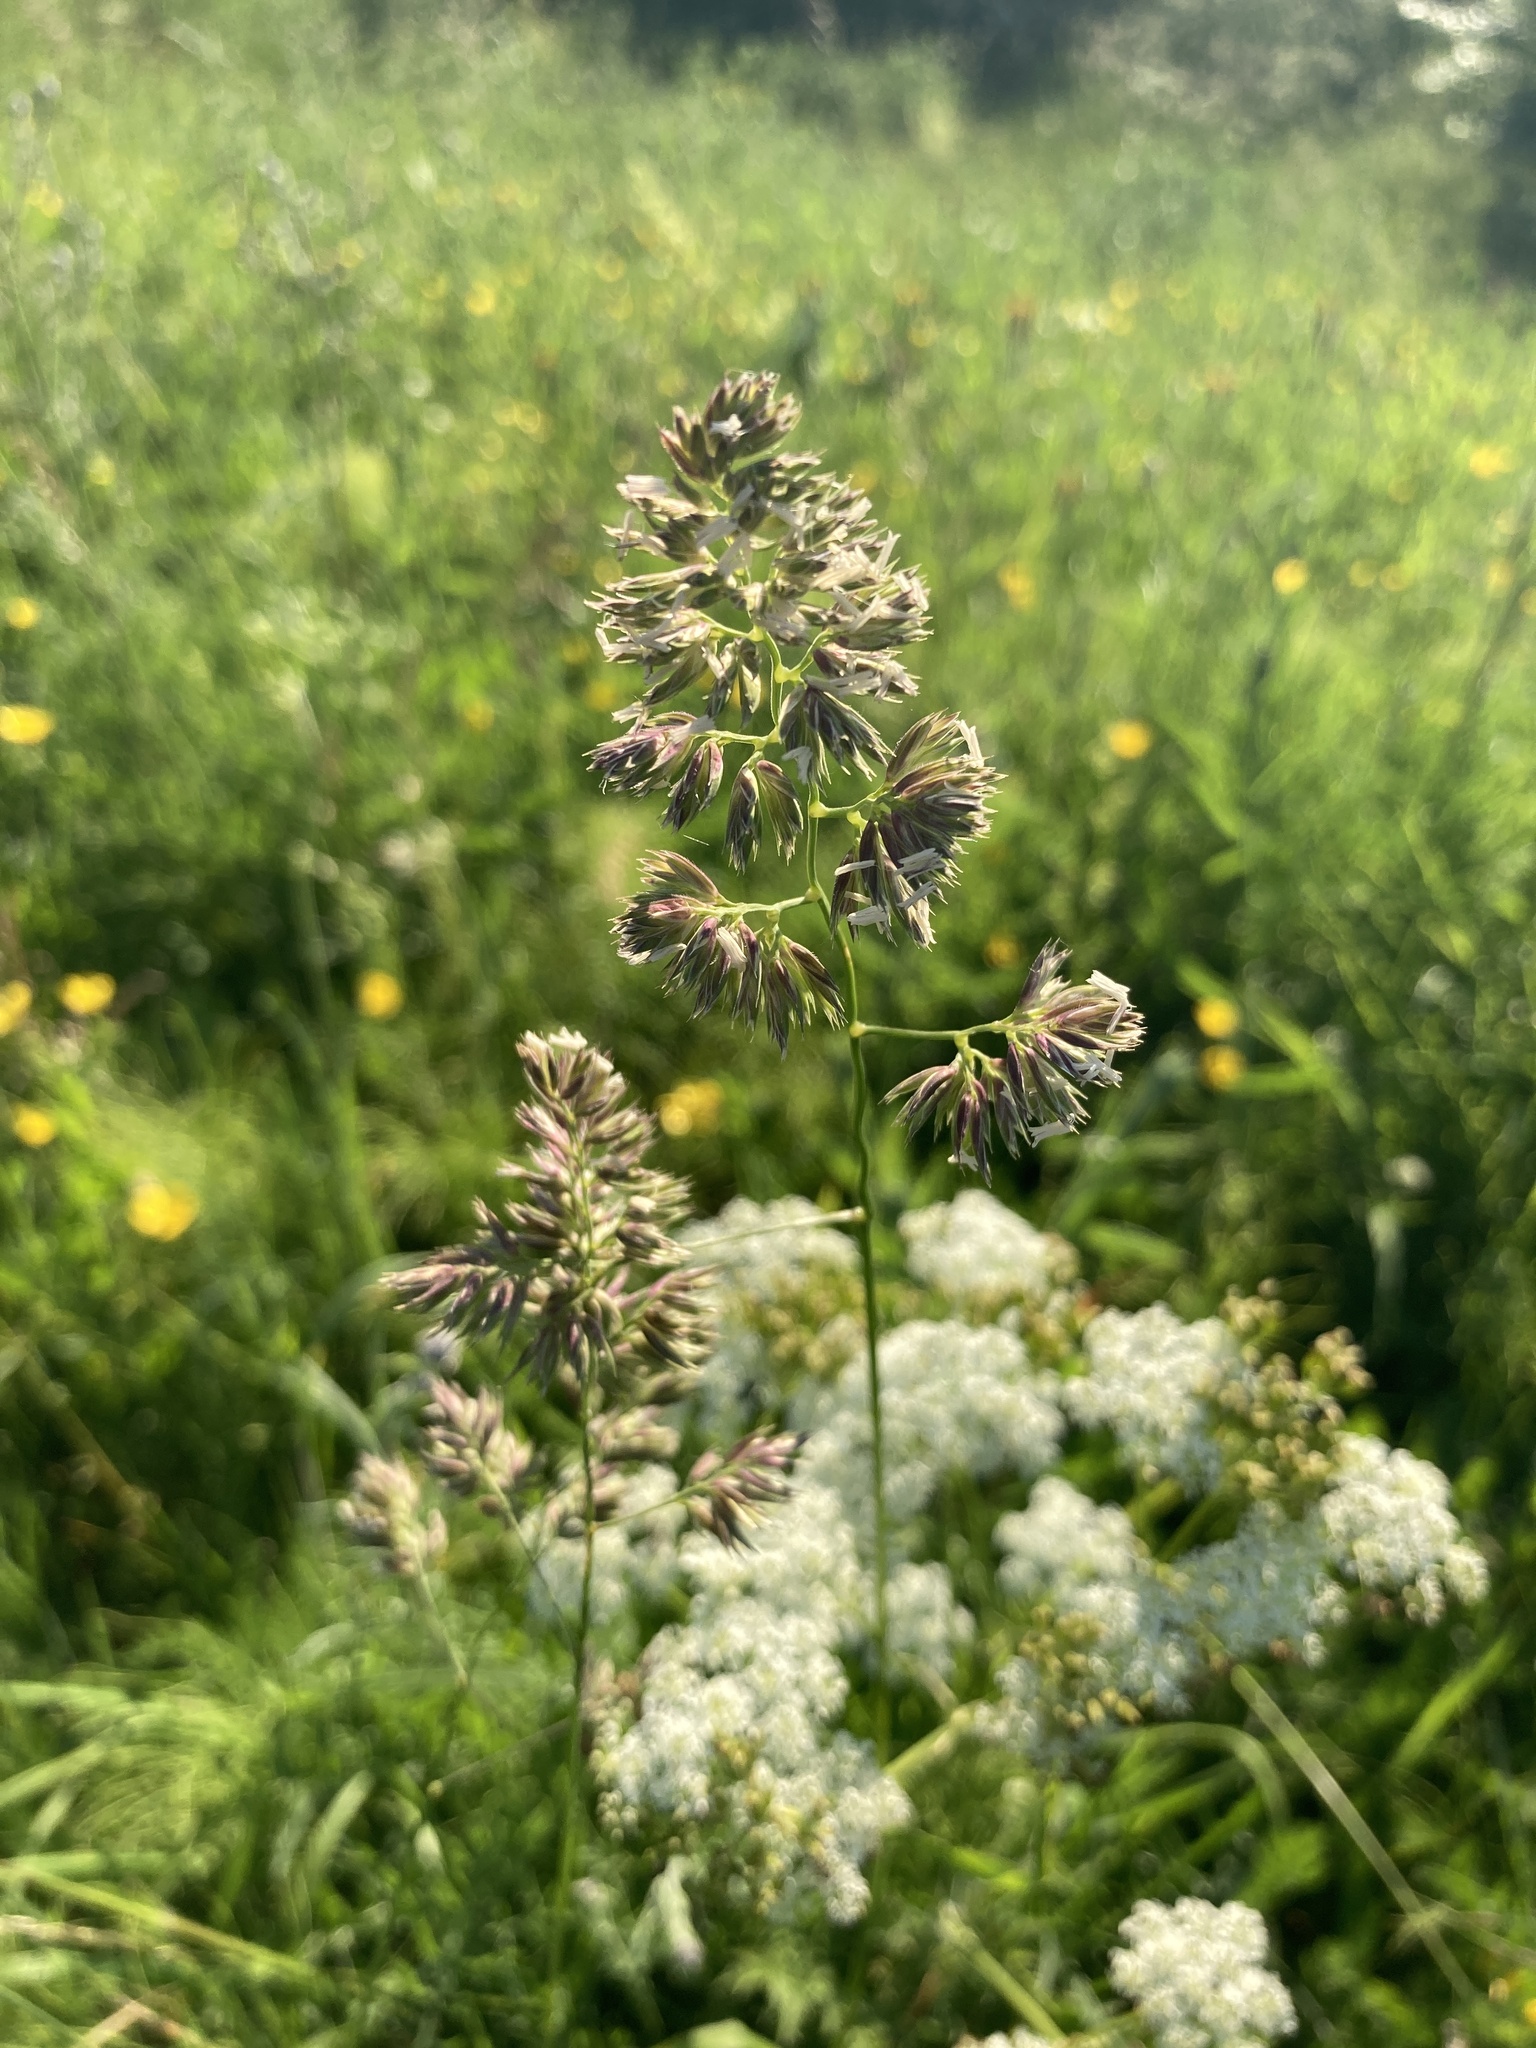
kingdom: Plantae
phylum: Tracheophyta
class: Liliopsida
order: Poales
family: Poaceae
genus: Dactylis
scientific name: Dactylis glomerata
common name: Orchardgrass
